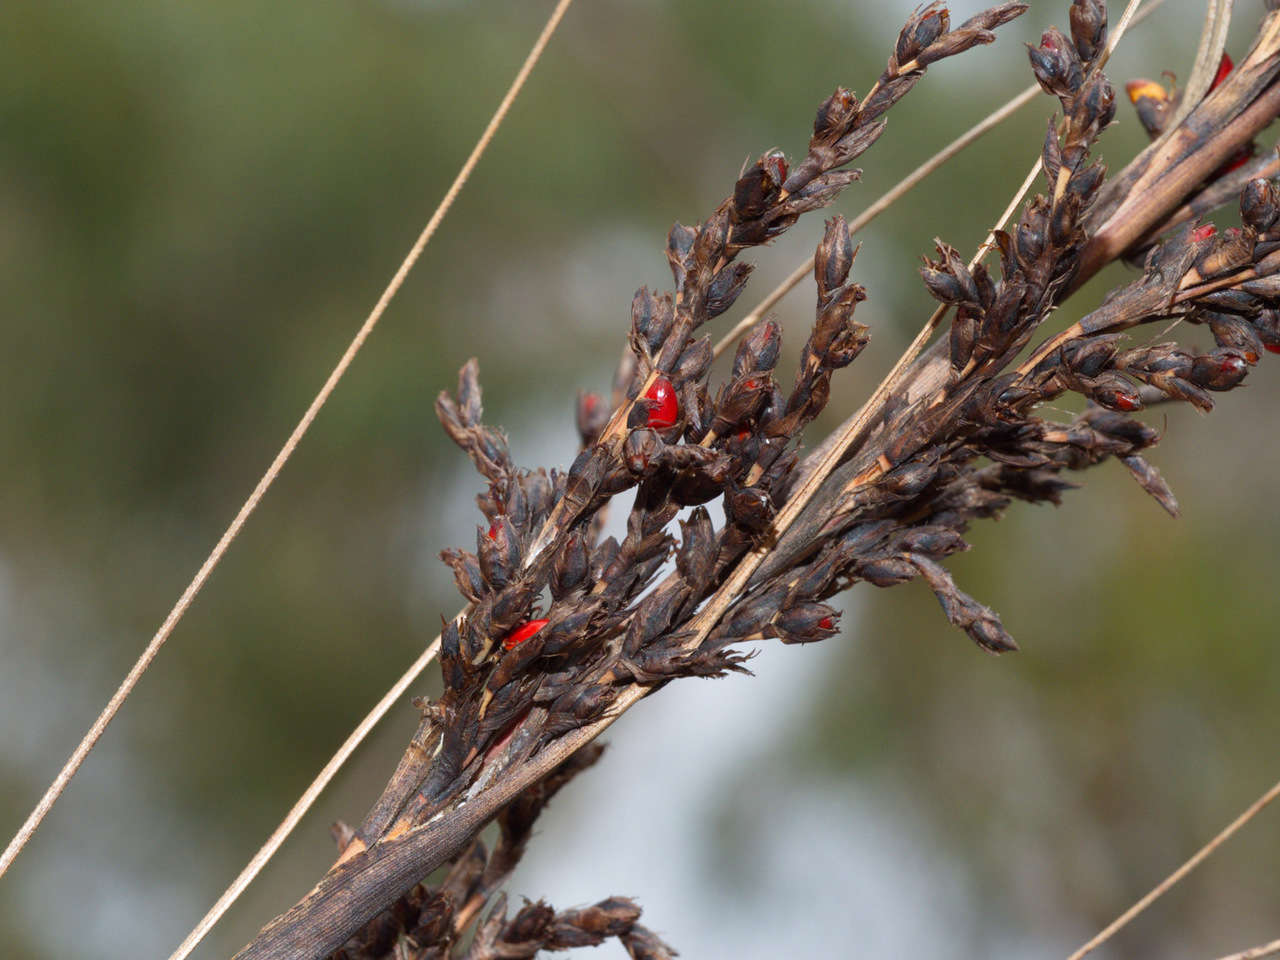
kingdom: Plantae
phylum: Tracheophyta
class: Liliopsida
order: Poales
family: Cyperaceae
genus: Gahnia
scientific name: Gahnia sieberiana
